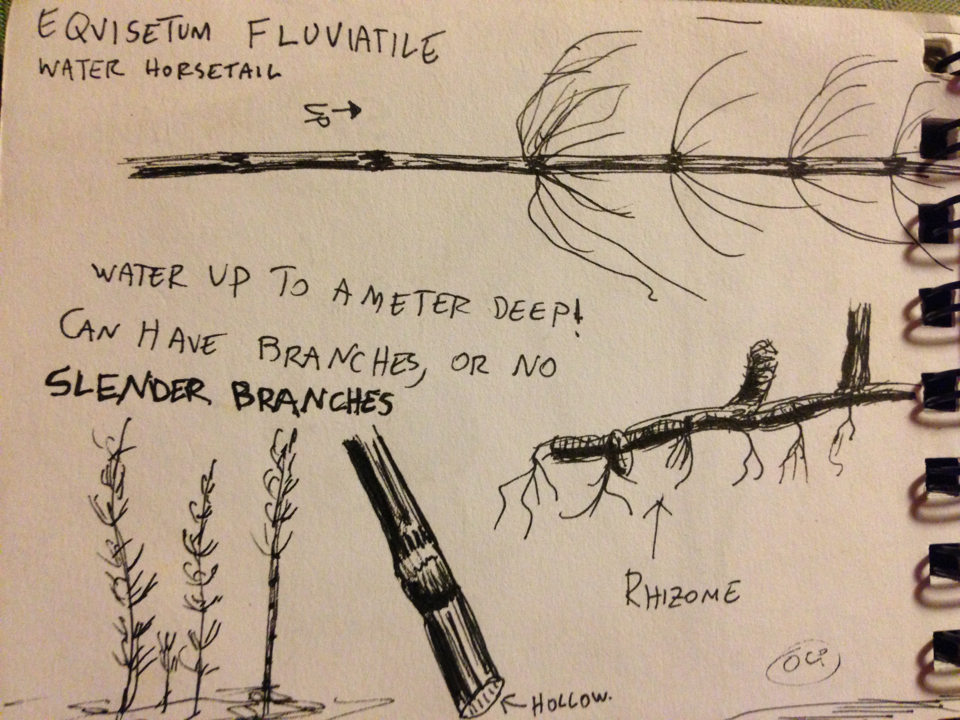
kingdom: Plantae
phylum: Tracheophyta
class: Polypodiopsida
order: Equisetales
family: Equisetaceae
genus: Equisetum
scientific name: Equisetum fluviatile
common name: Water horsetail
